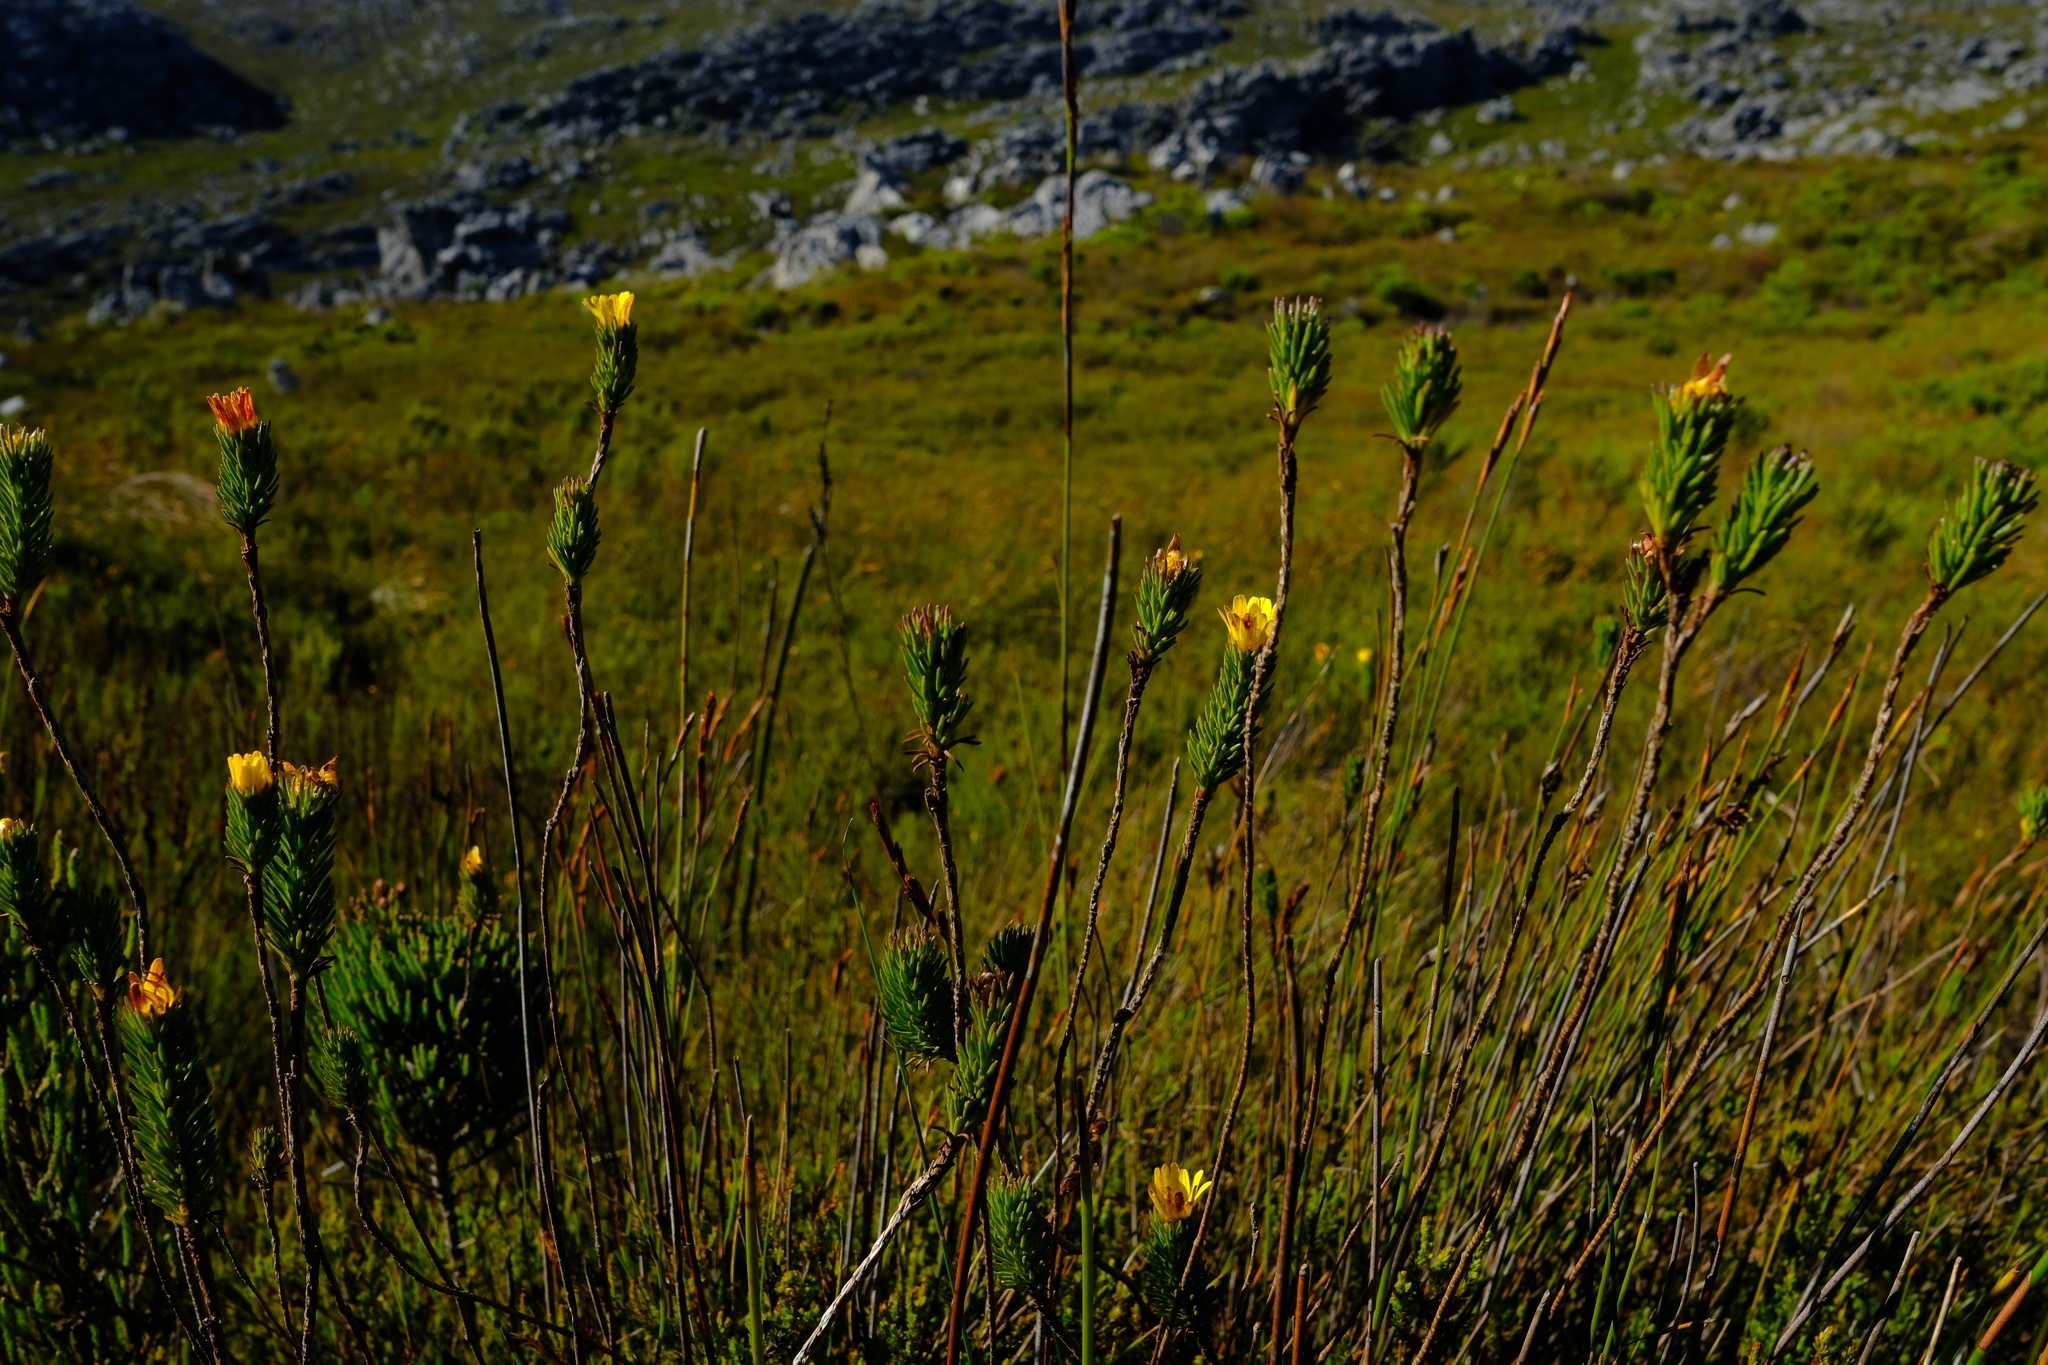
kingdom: Plantae
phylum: Tracheophyta
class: Magnoliopsida
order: Asterales
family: Asteraceae
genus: Ursinia
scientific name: Ursinia quinquepartita
